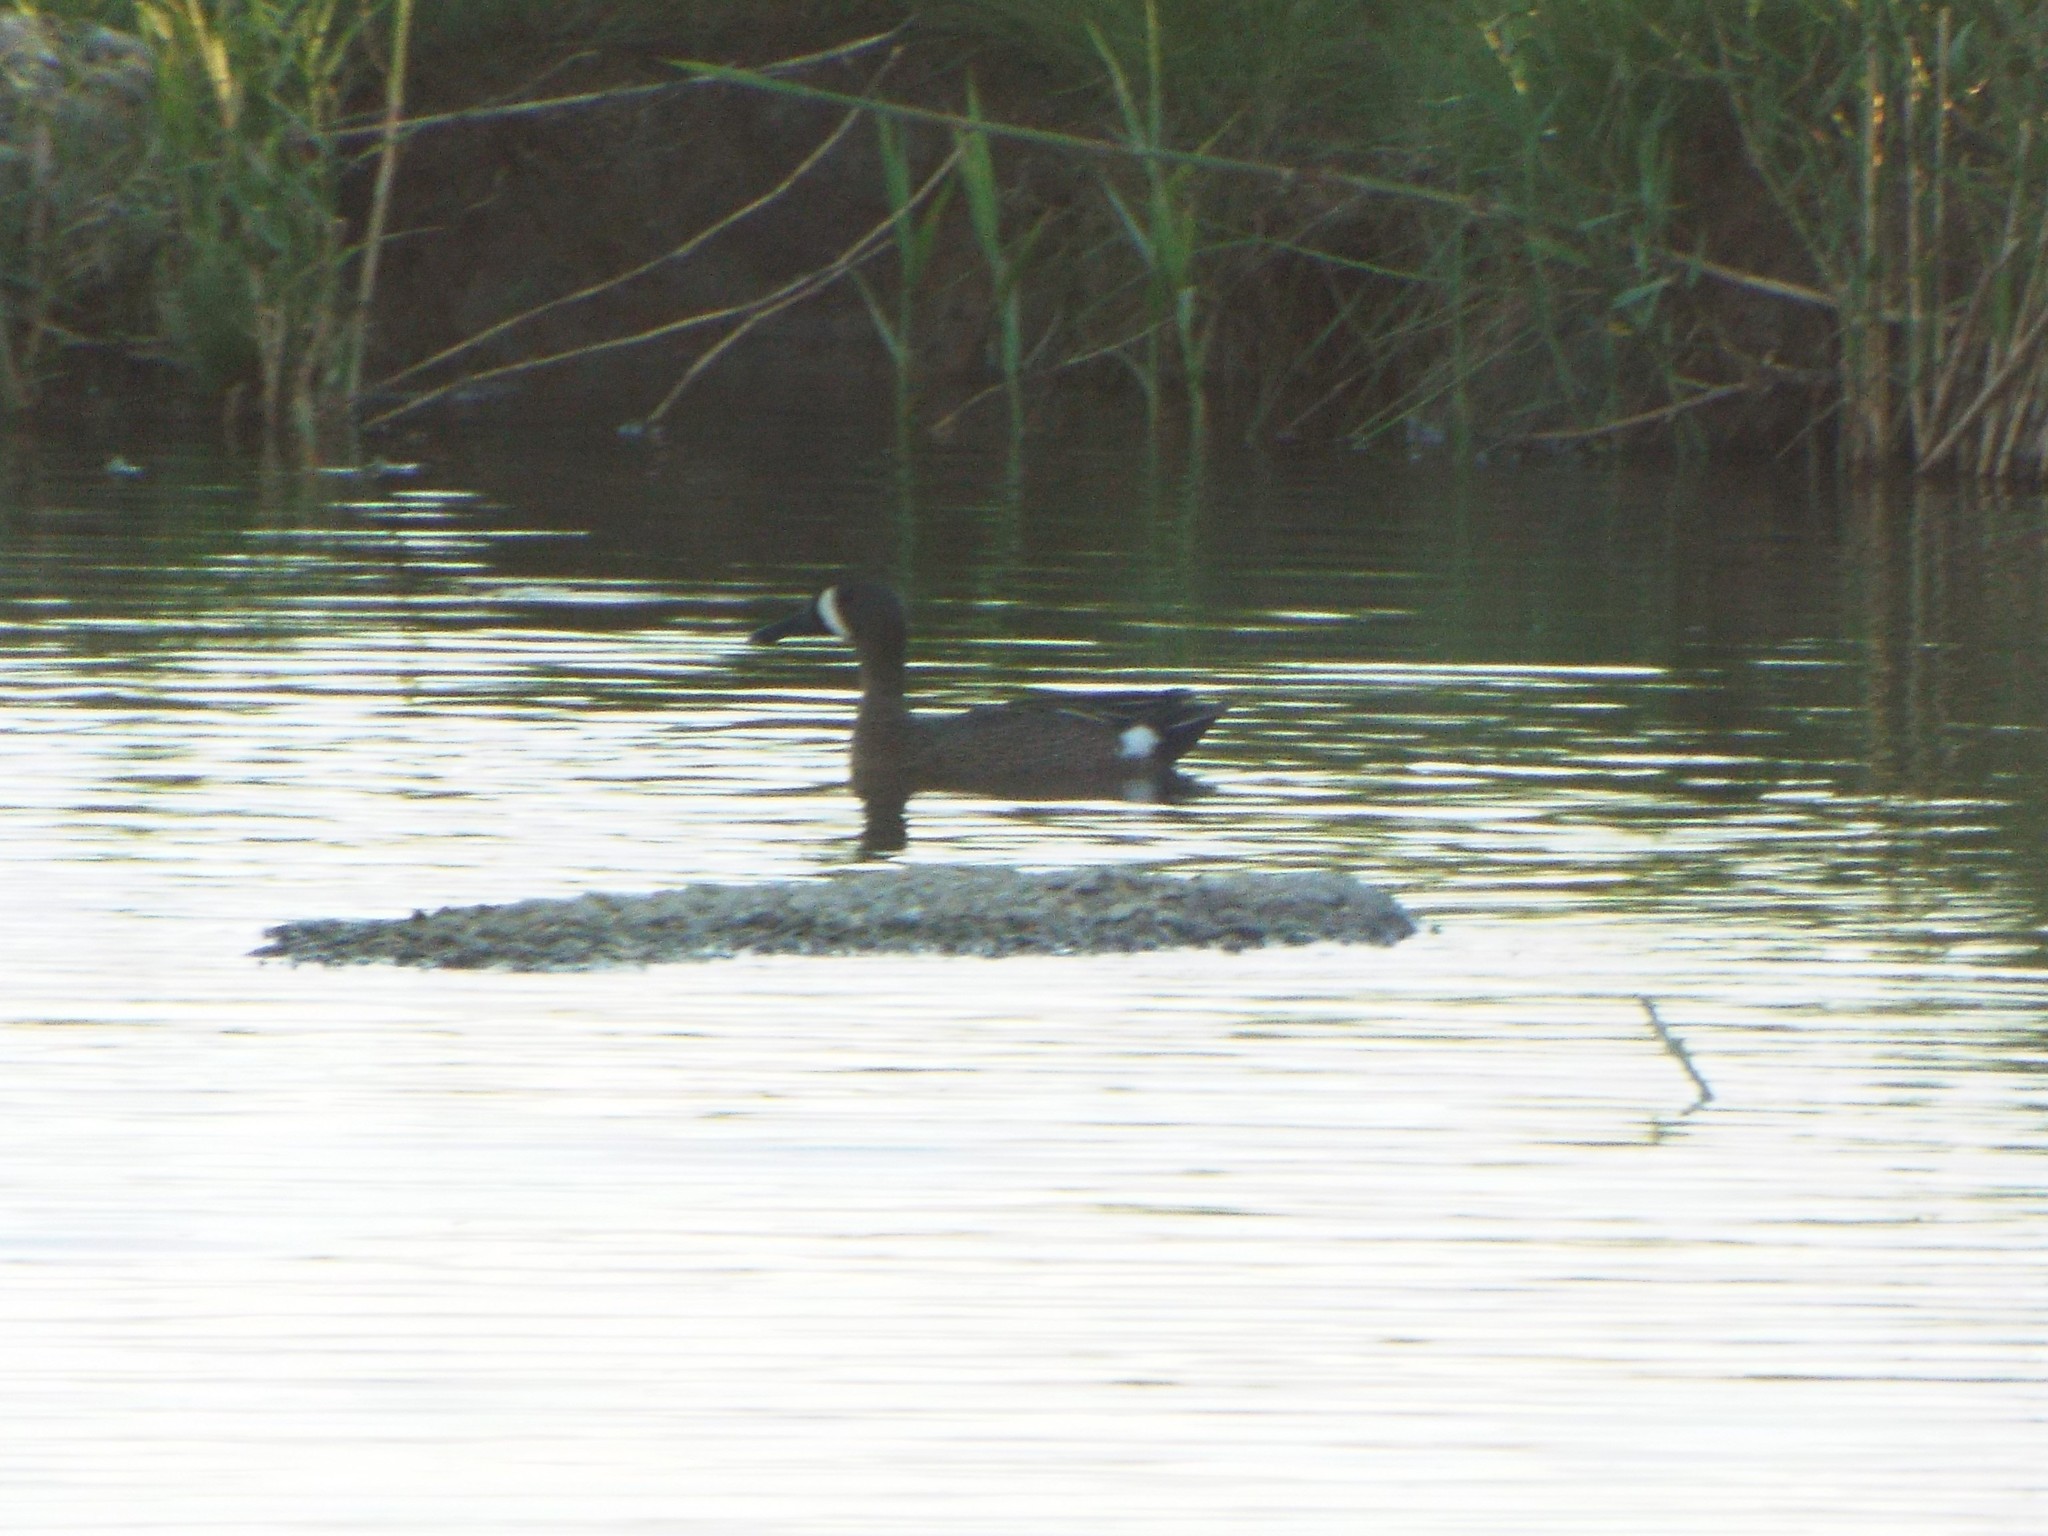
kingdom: Animalia
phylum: Chordata
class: Aves
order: Anseriformes
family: Anatidae
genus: Spatula
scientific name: Spatula discors
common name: Blue-winged teal
